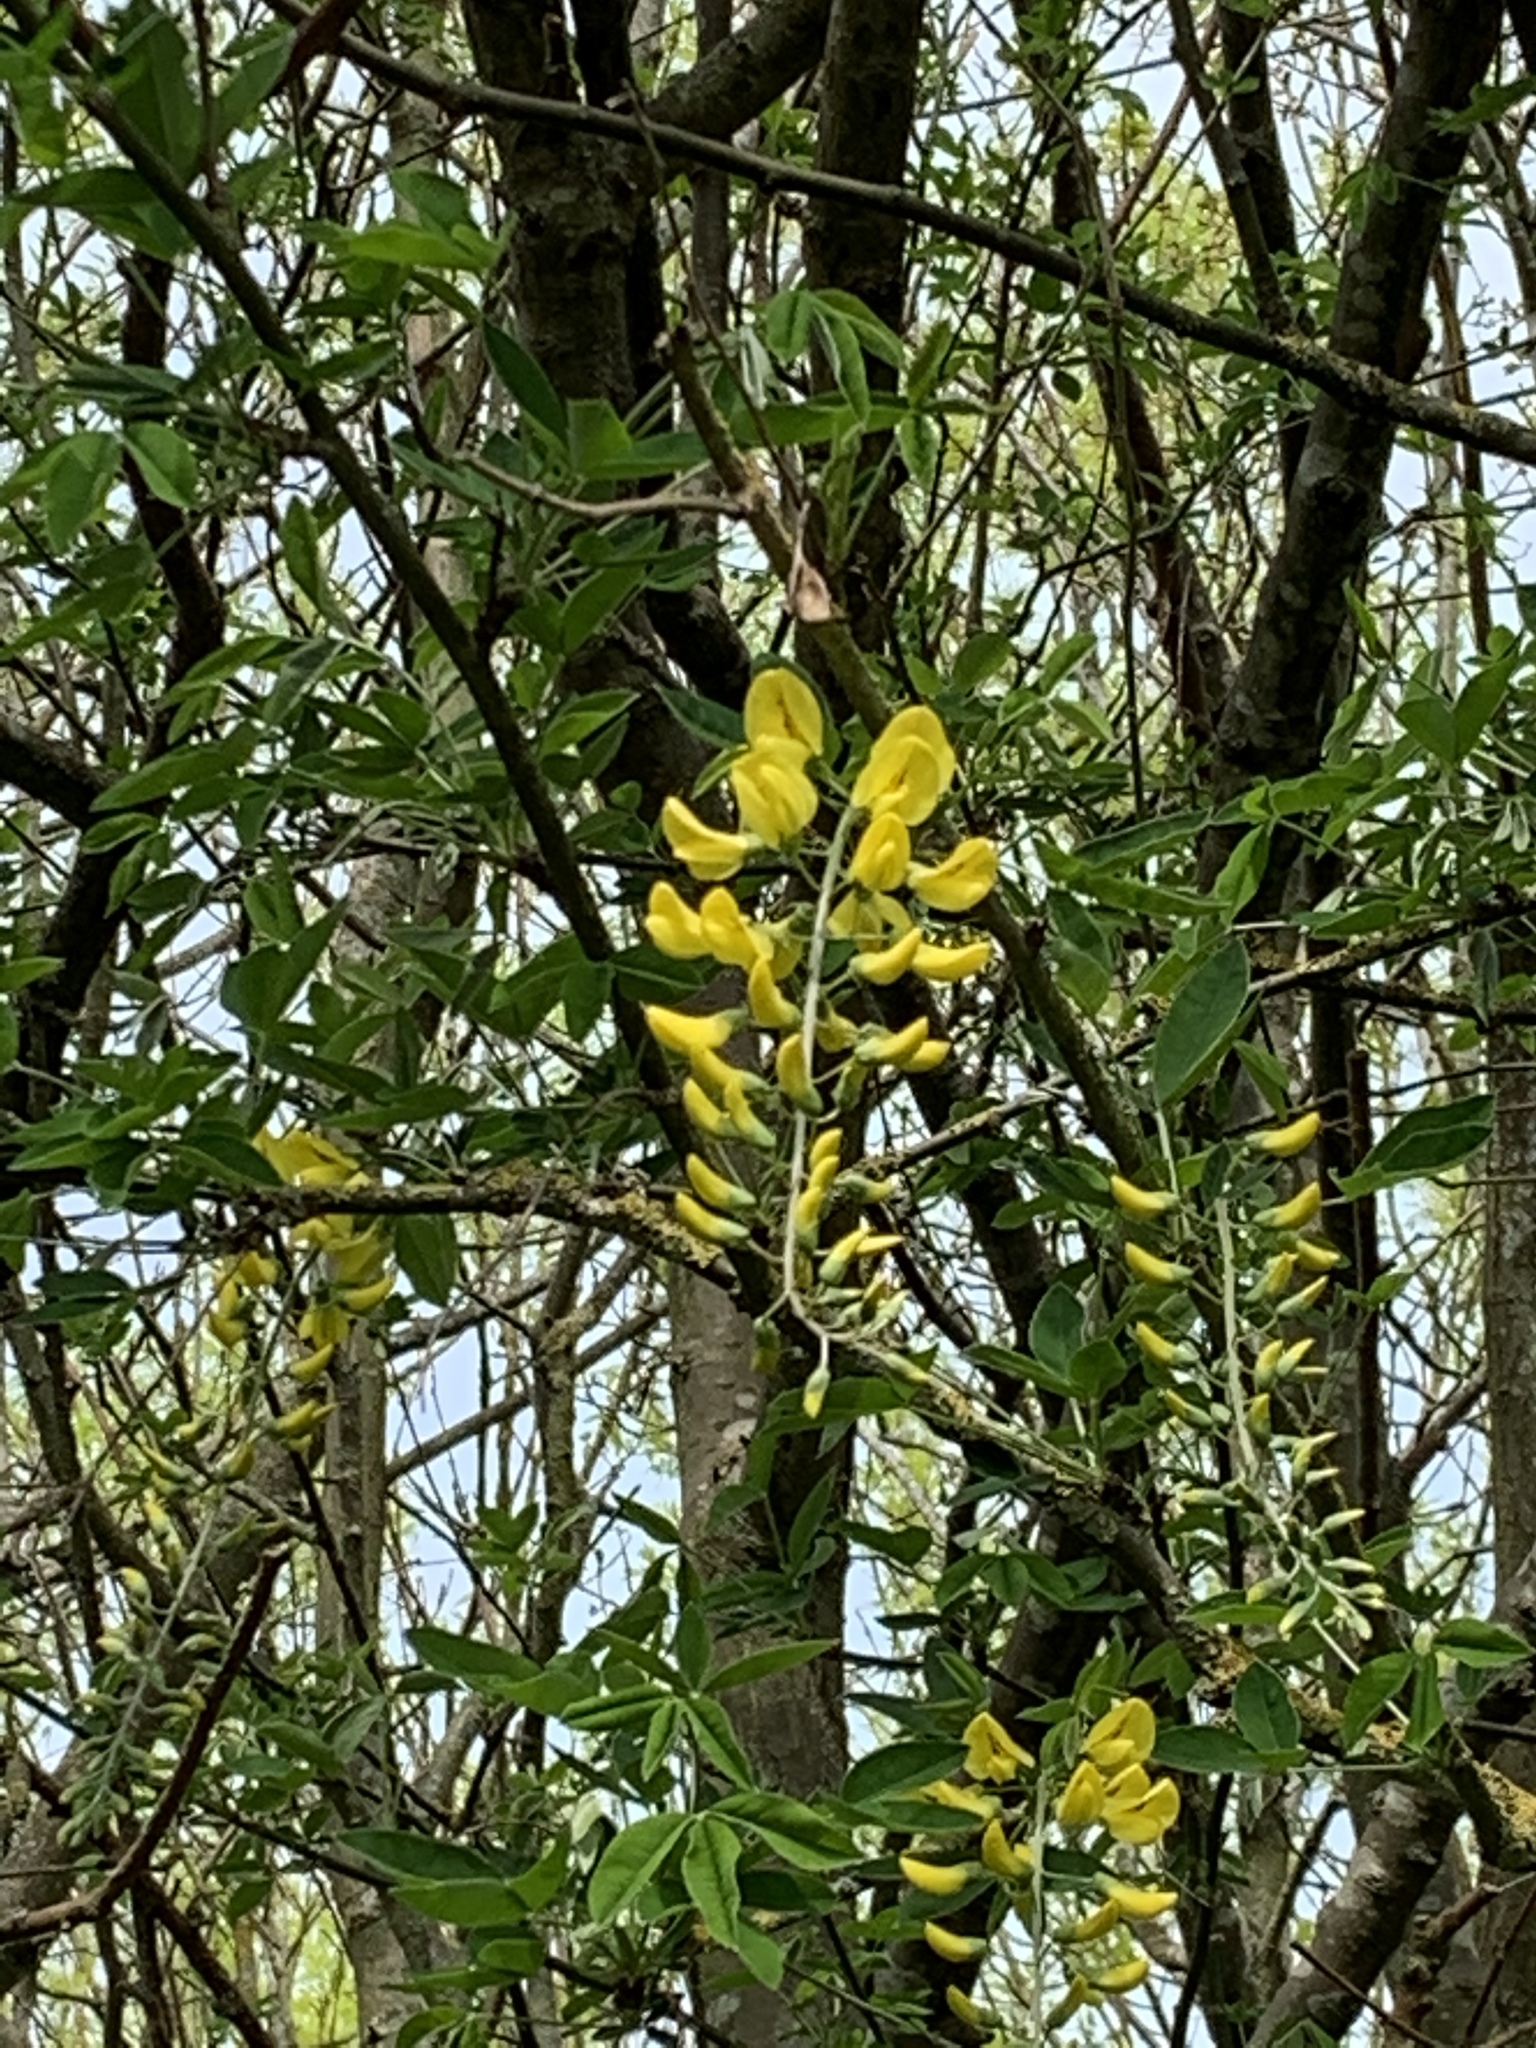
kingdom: Plantae
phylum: Tracheophyta
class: Magnoliopsida
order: Fabales
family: Fabaceae
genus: Laburnum
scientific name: Laburnum anagyroides
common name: Laburnum
